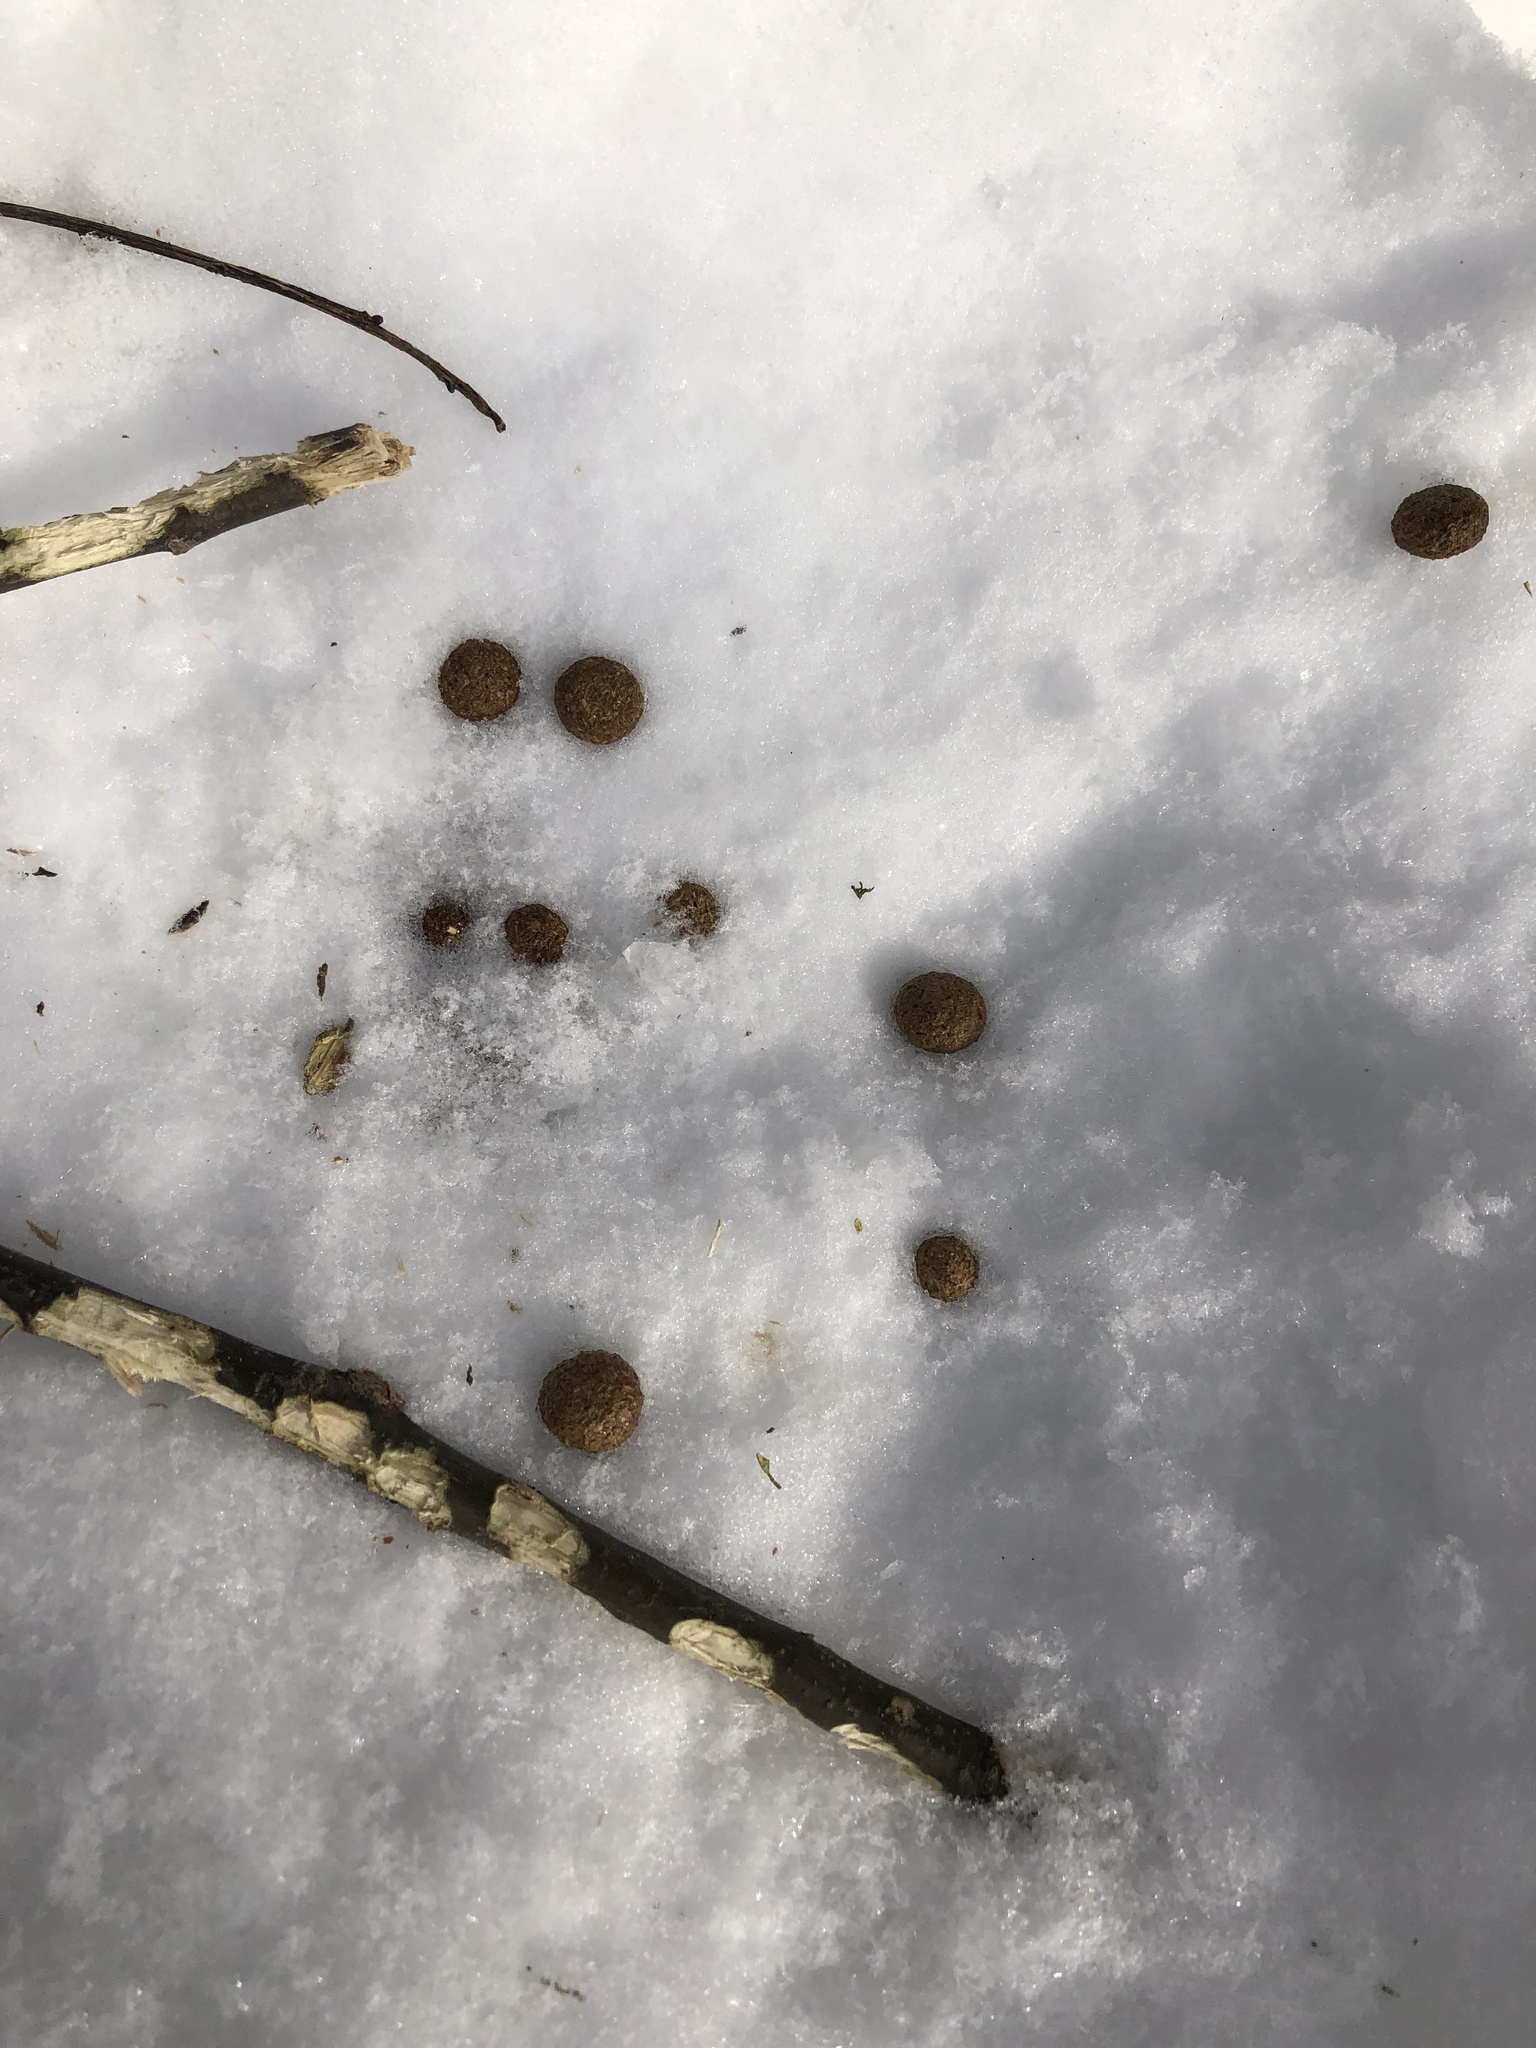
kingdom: Animalia
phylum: Chordata
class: Mammalia
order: Lagomorpha
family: Leporidae
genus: Sylvilagus
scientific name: Sylvilagus floridanus
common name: Eastern cottontail
